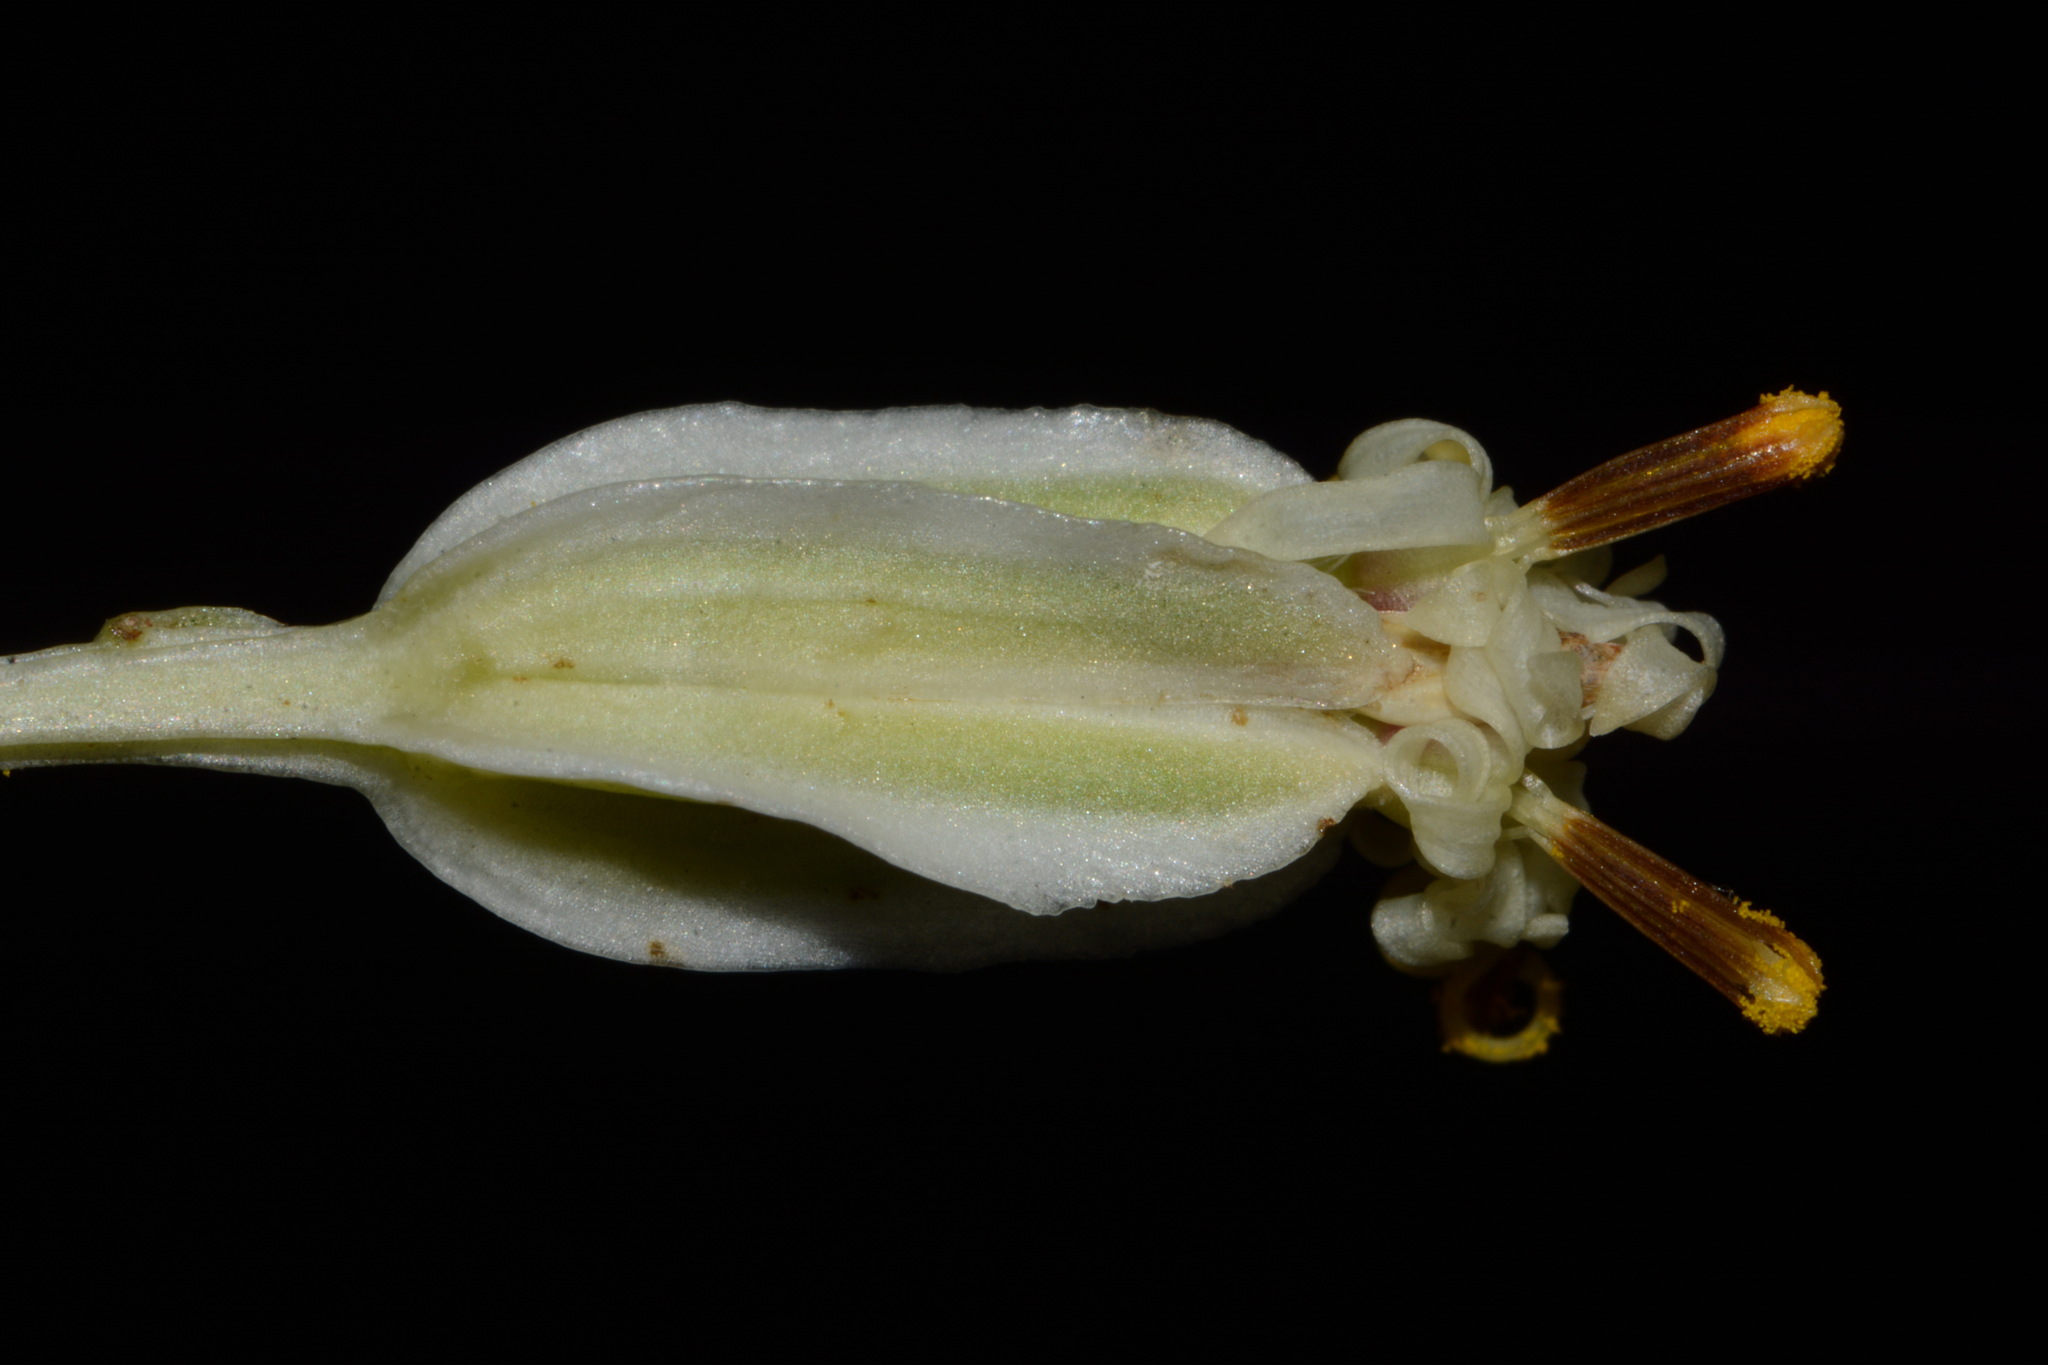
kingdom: Plantae
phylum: Tracheophyta
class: Magnoliopsida
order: Asterales
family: Asteraceae
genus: Arnoglossum
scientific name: Arnoglossum plantagineum
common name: Groove-stemmed indian-plantain
